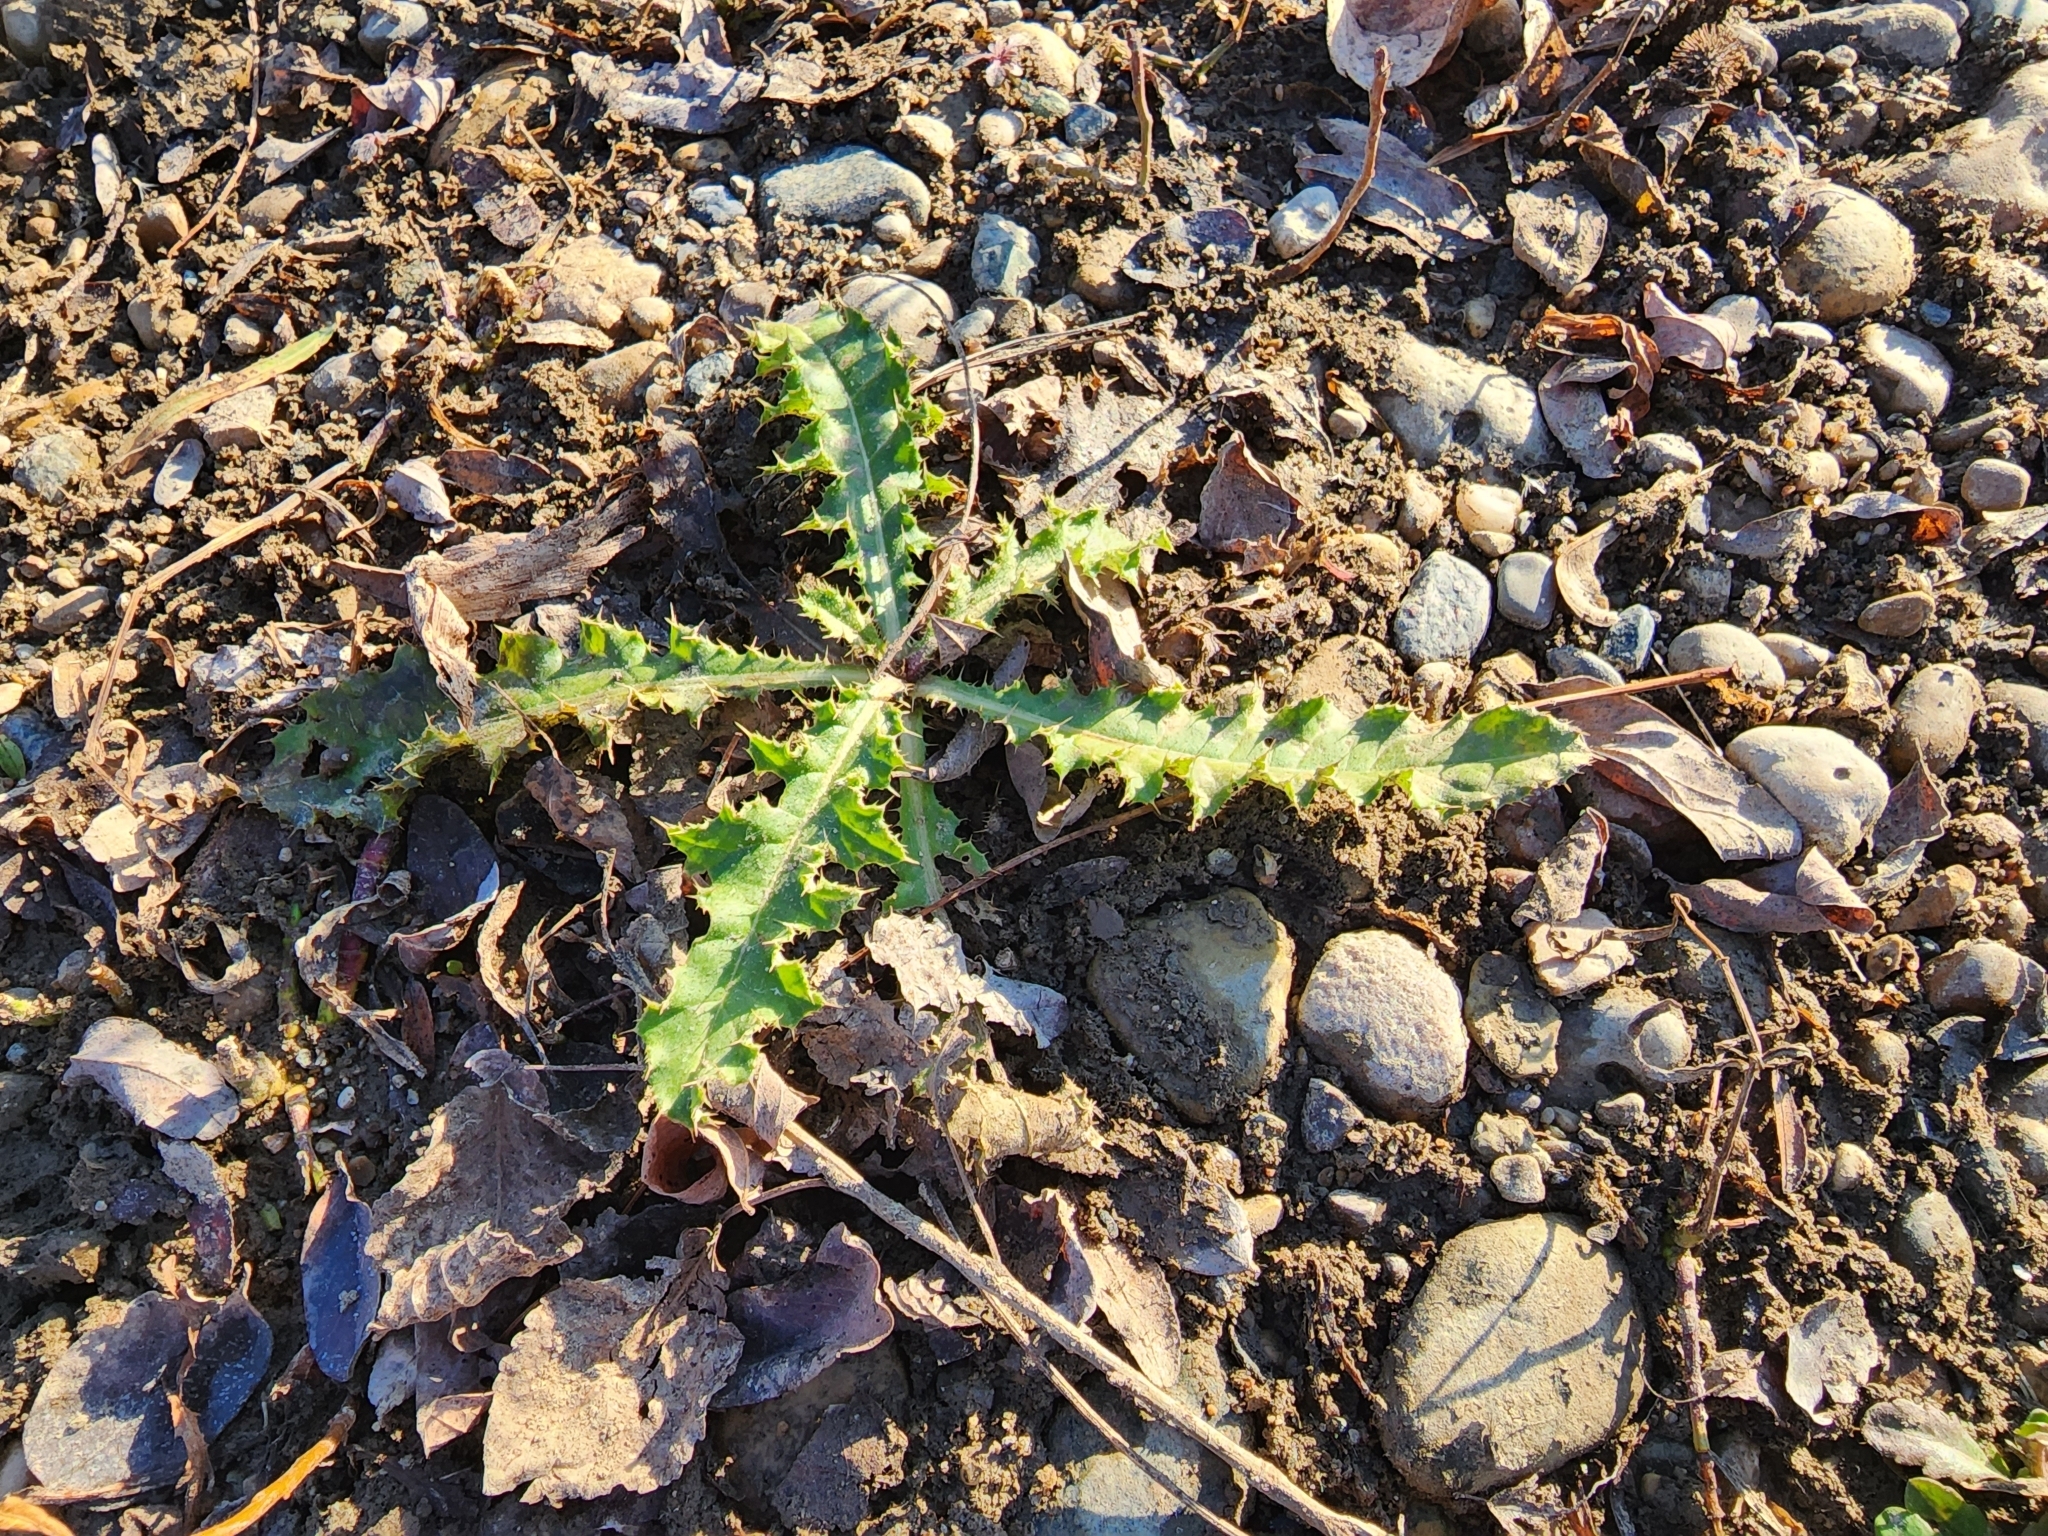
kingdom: Plantae
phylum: Tracheophyta
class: Magnoliopsida
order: Asterales
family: Asteraceae
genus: Cirsium
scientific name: Cirsium arvense
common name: Creeping thistle
